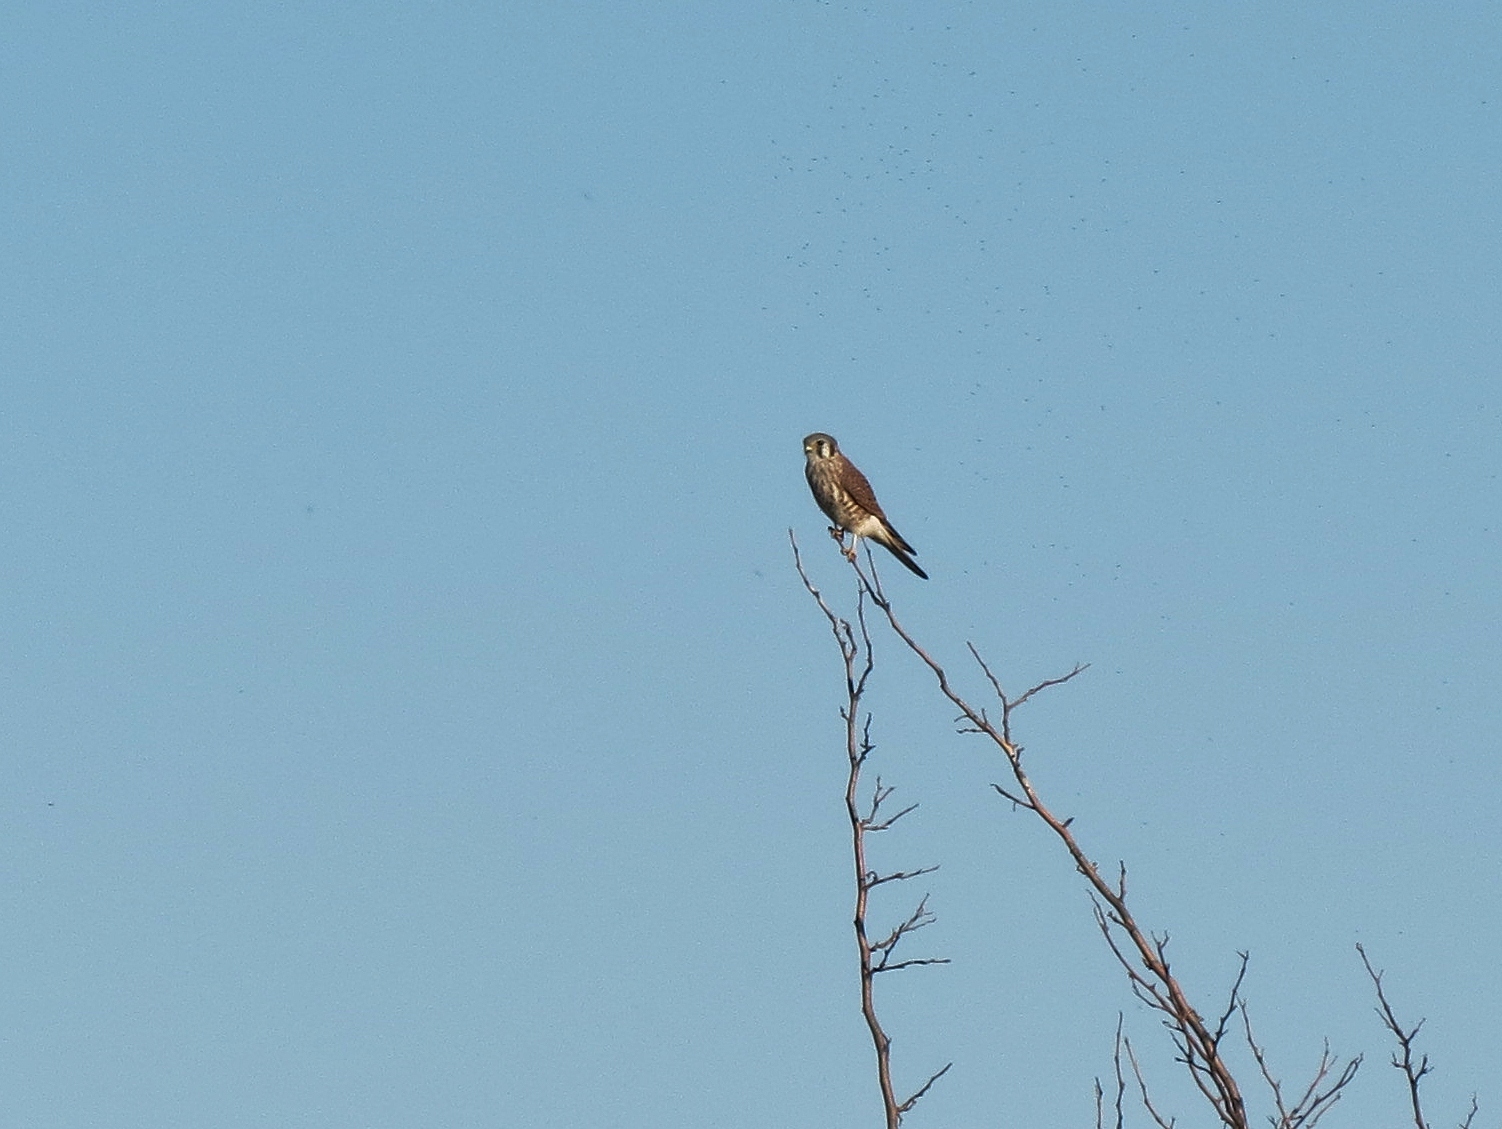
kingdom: Animalia
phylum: Chordata
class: Aves
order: Falconiformes
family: Falconidae
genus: Falco
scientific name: Falco sparverius
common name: American kestrel
